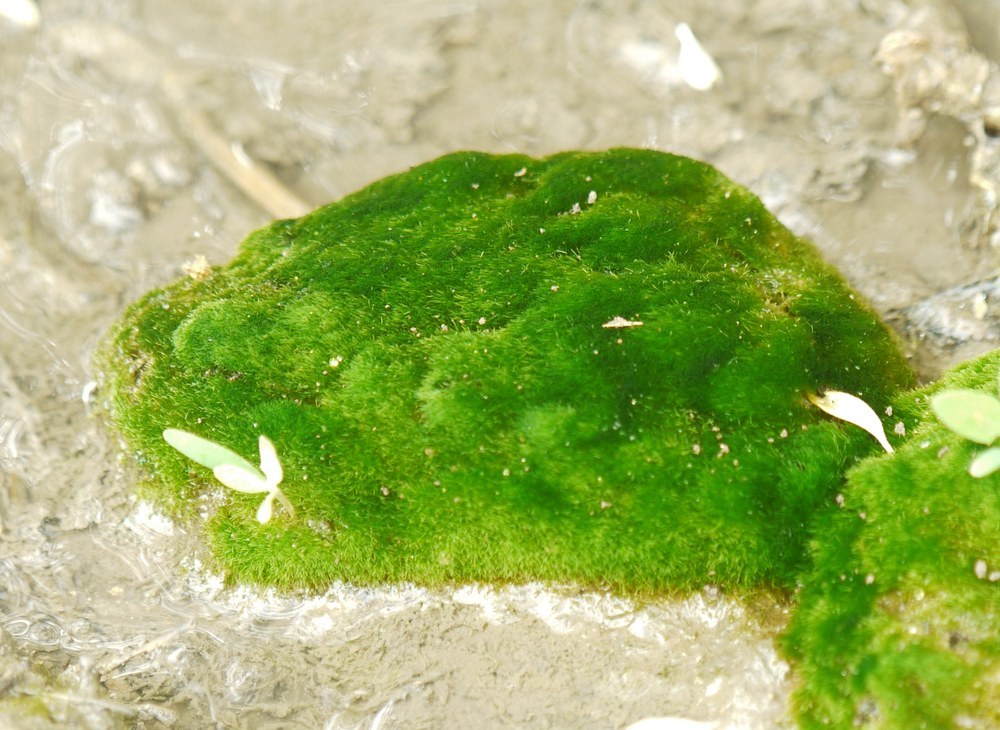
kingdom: Chromista
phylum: Ochrophyta
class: Xanthophyceae
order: Vaucheriales
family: Vaucheriaceae
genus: Vaucheria
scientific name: Vaucheria
